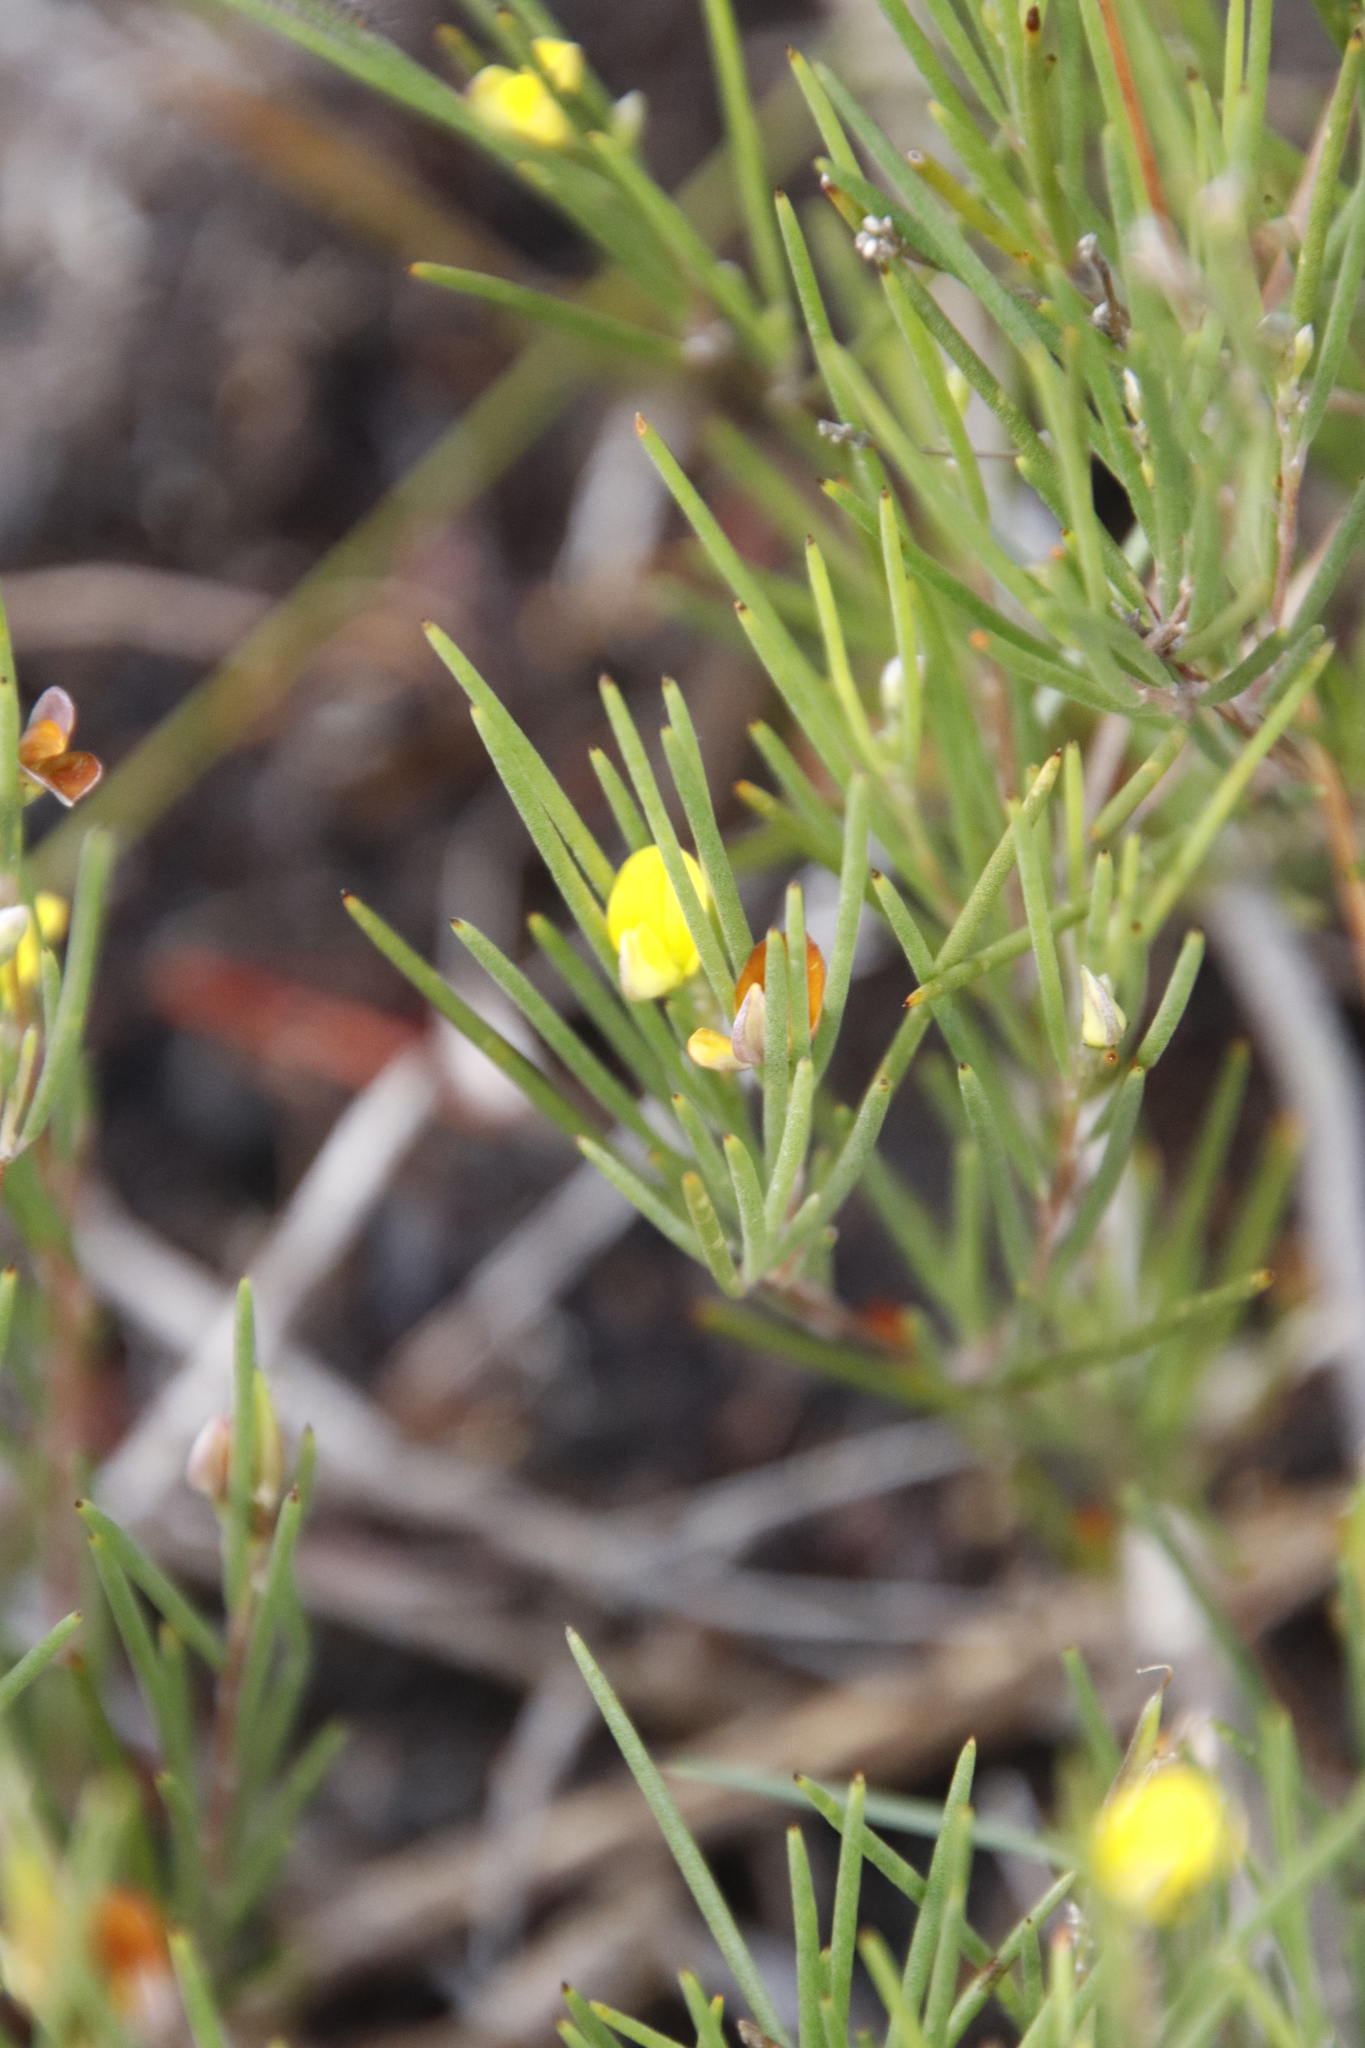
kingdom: Plantae
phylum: Tracheophyta
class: Magnoliopsida
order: Fabales
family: Fabaceae
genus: Aspalathus
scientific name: Aspalathus linearis
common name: Rooibos-tea
